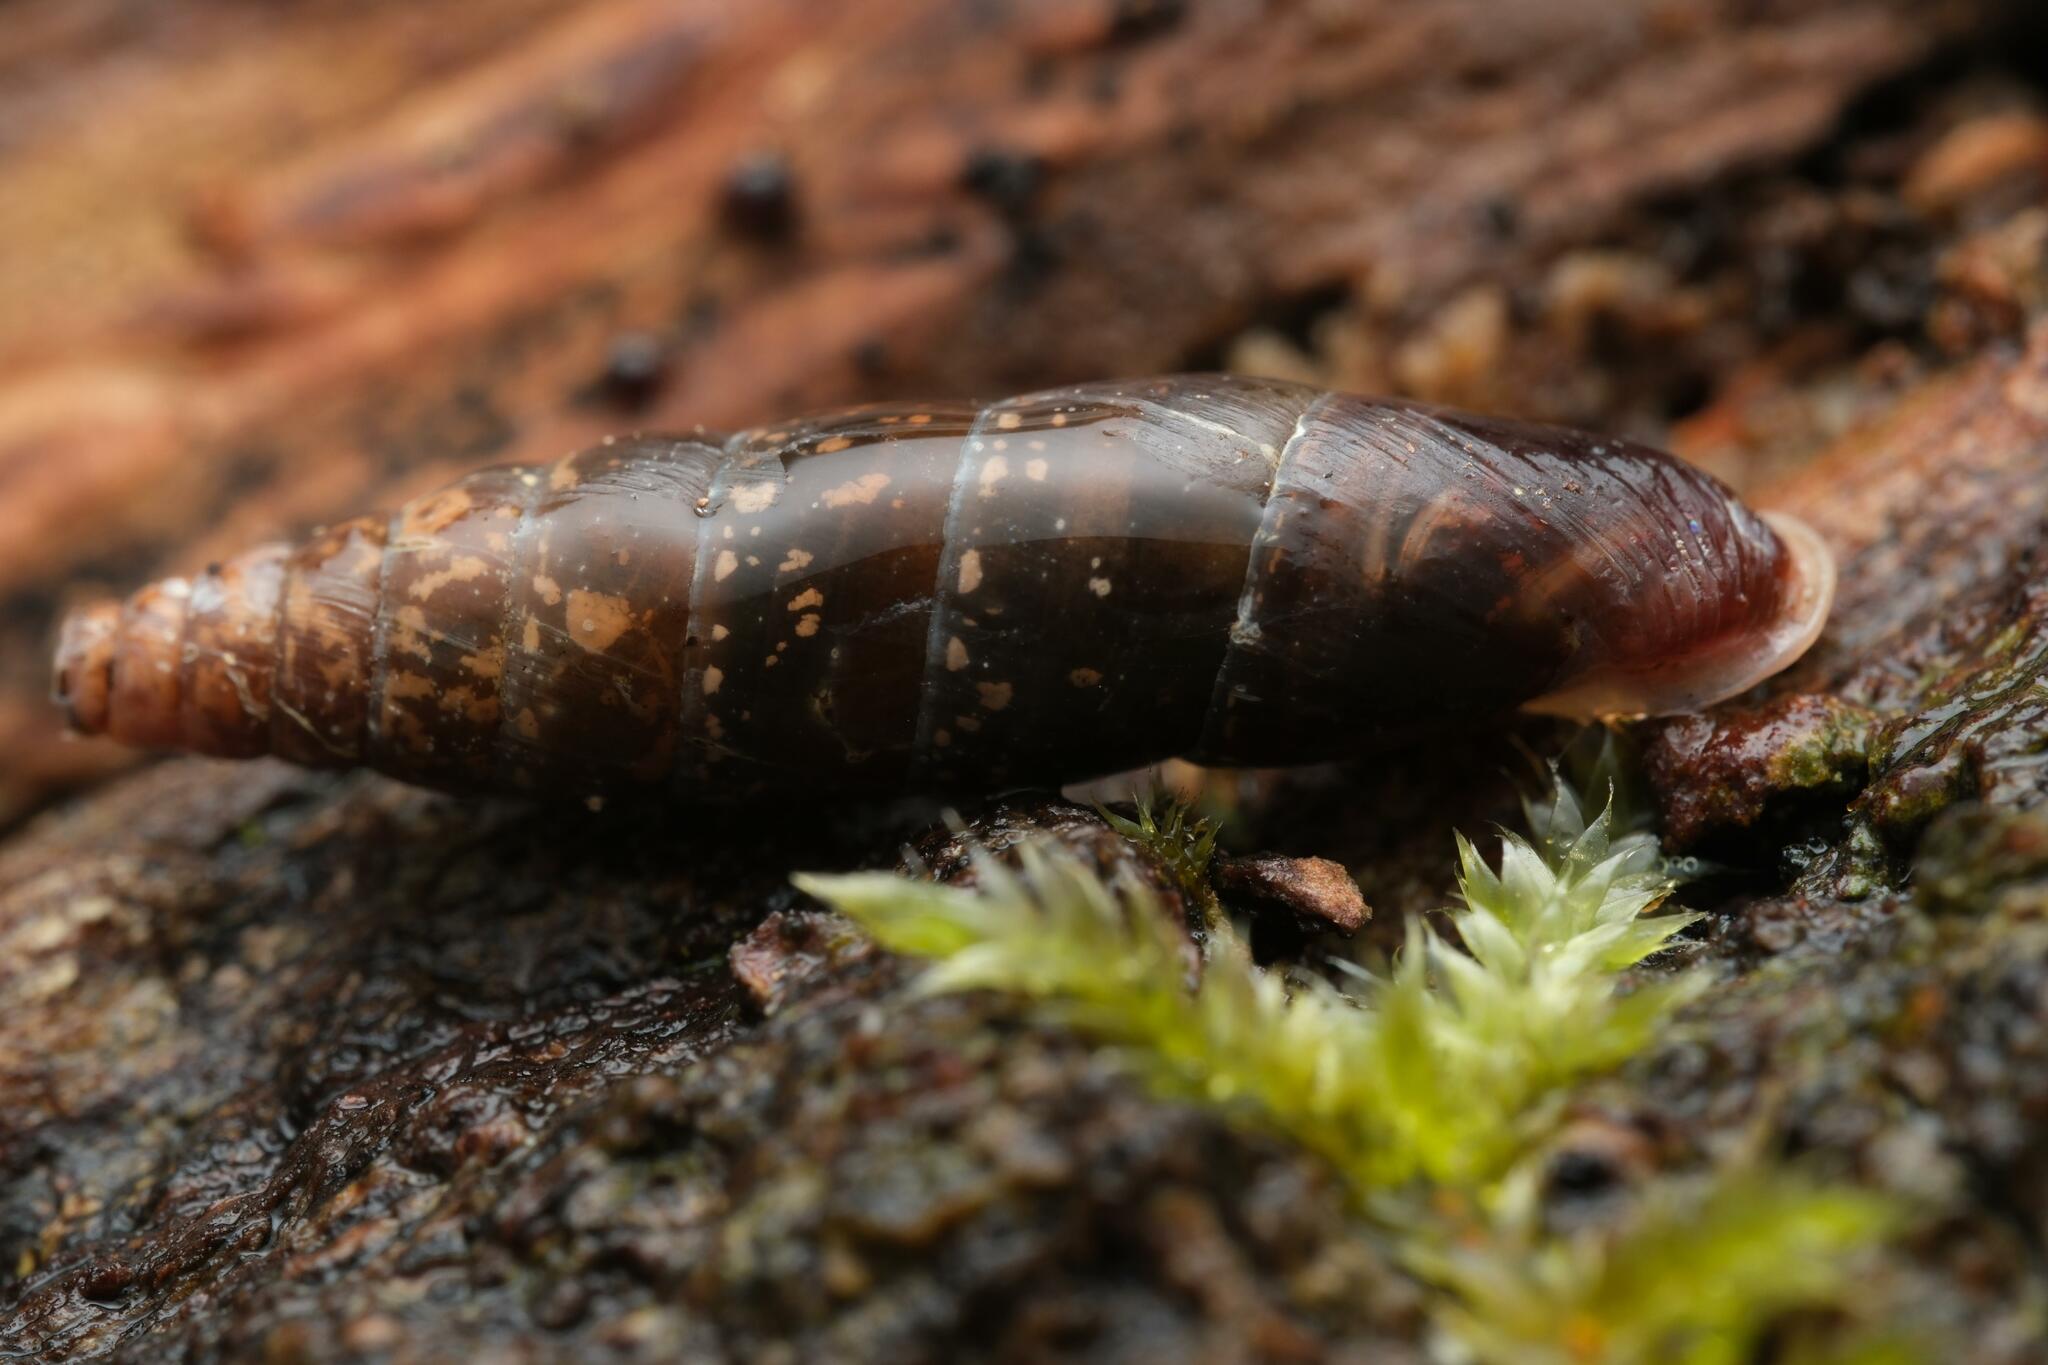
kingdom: Animalia
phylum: Mollusca
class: Gastropoda
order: Stylommatophora
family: Clausiliidae
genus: Cochlodina
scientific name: Cochlodina laminata
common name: Plaited door snail
